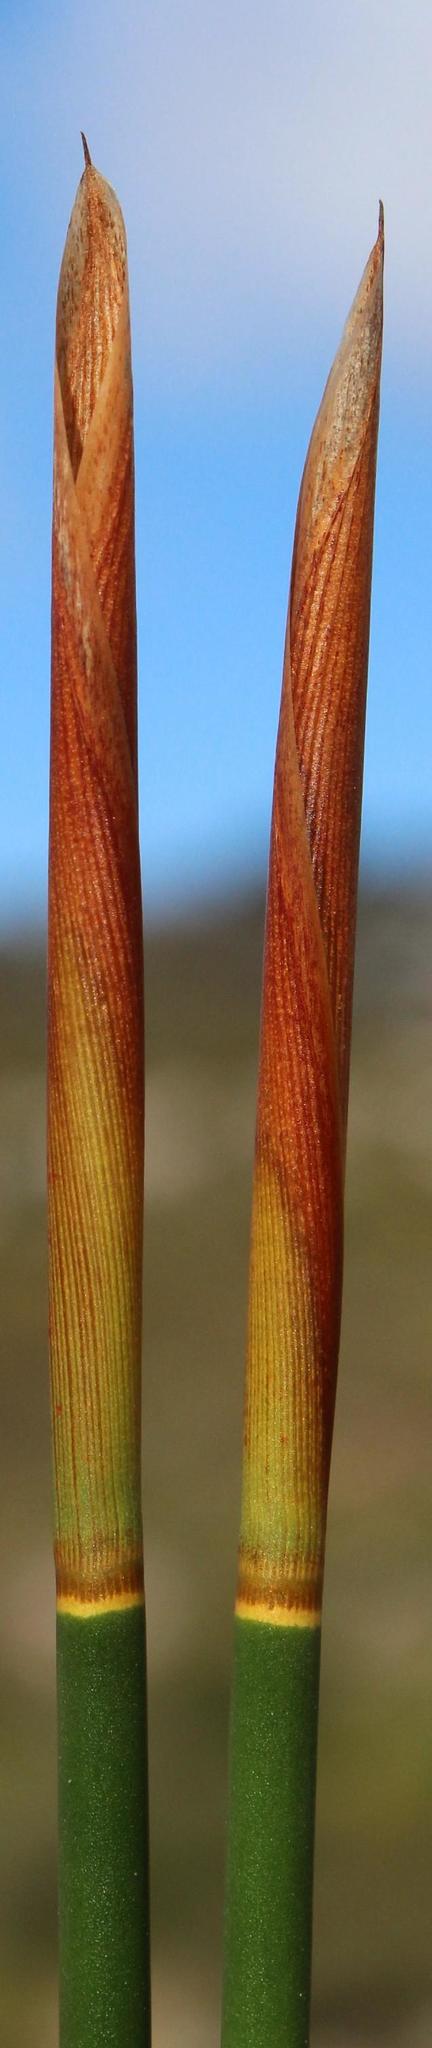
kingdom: Plantae
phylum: Tracheophyta
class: Liliopsida
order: Poales
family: Restionaceae
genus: Thamnochortus
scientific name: Thamnochortus erectus
